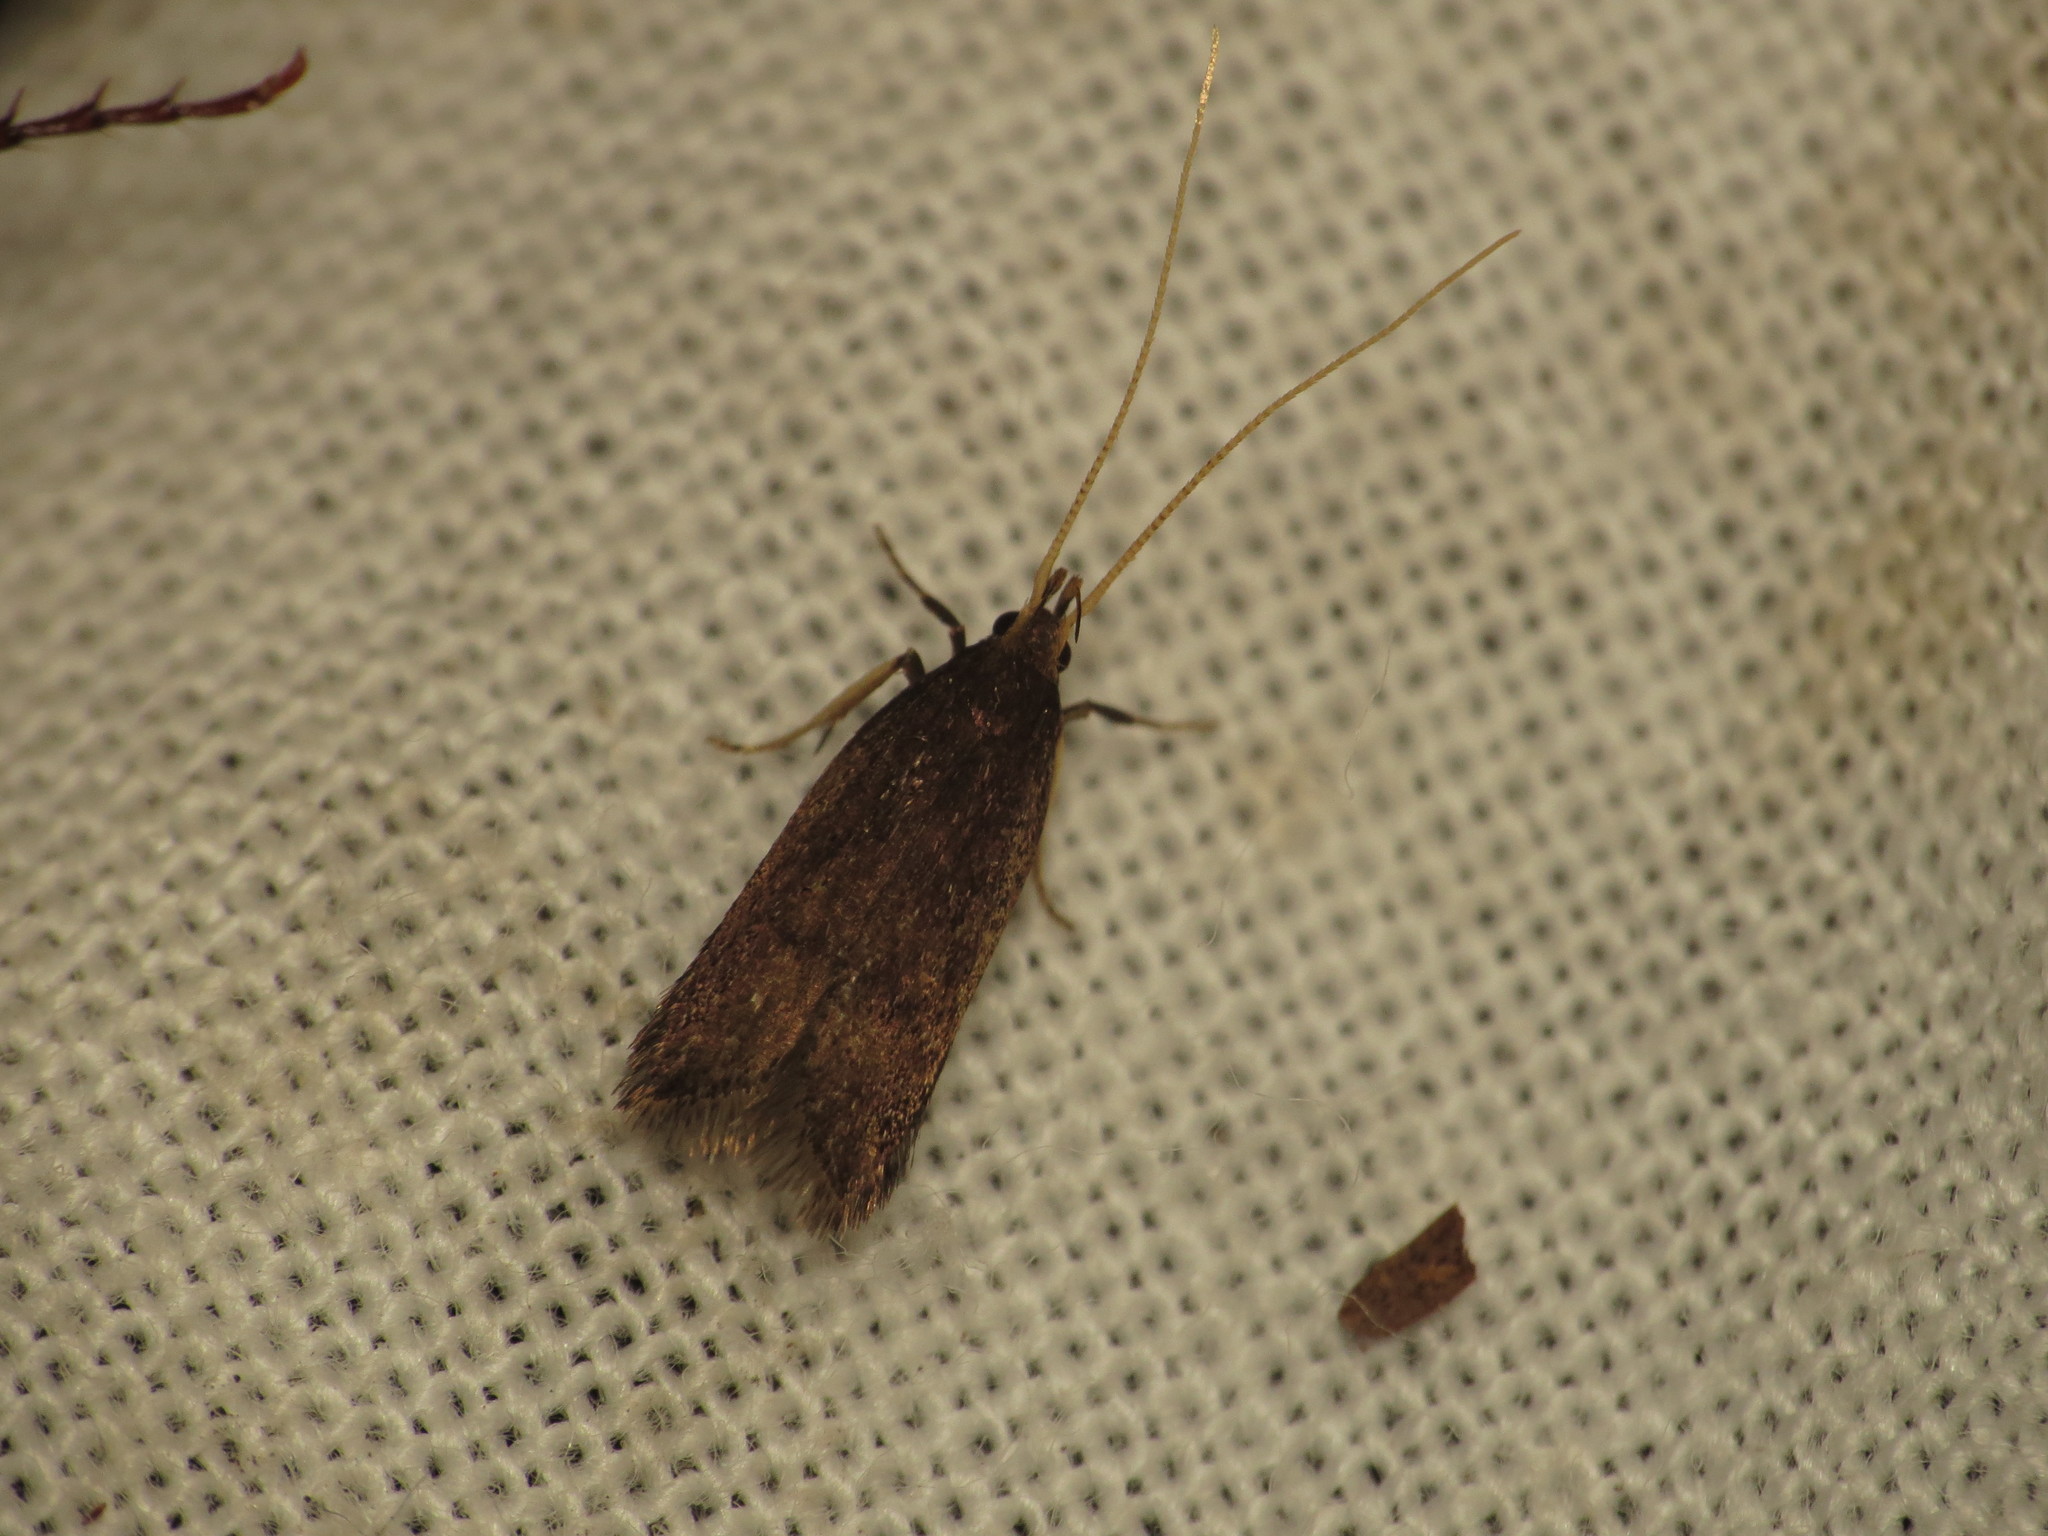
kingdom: Animalia
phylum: Arthropoda
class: Insecta
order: Lepidoptera
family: Lecithoceridae
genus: Lecithocera
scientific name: Lecithocera terrigena
